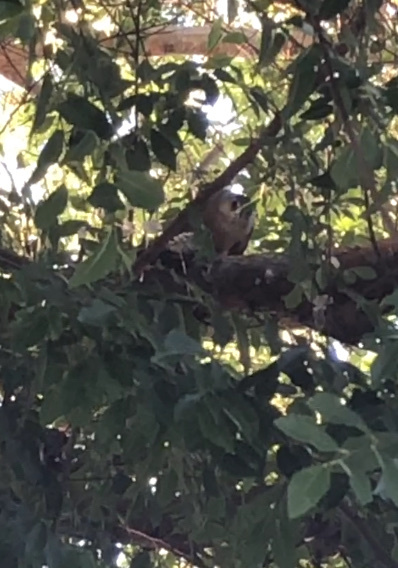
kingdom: Animalia
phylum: Chordata
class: Aves
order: Accipitriformes
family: Accipitridae
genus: Accipiter
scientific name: Accipiter cooperii
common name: Cooper's hawk
